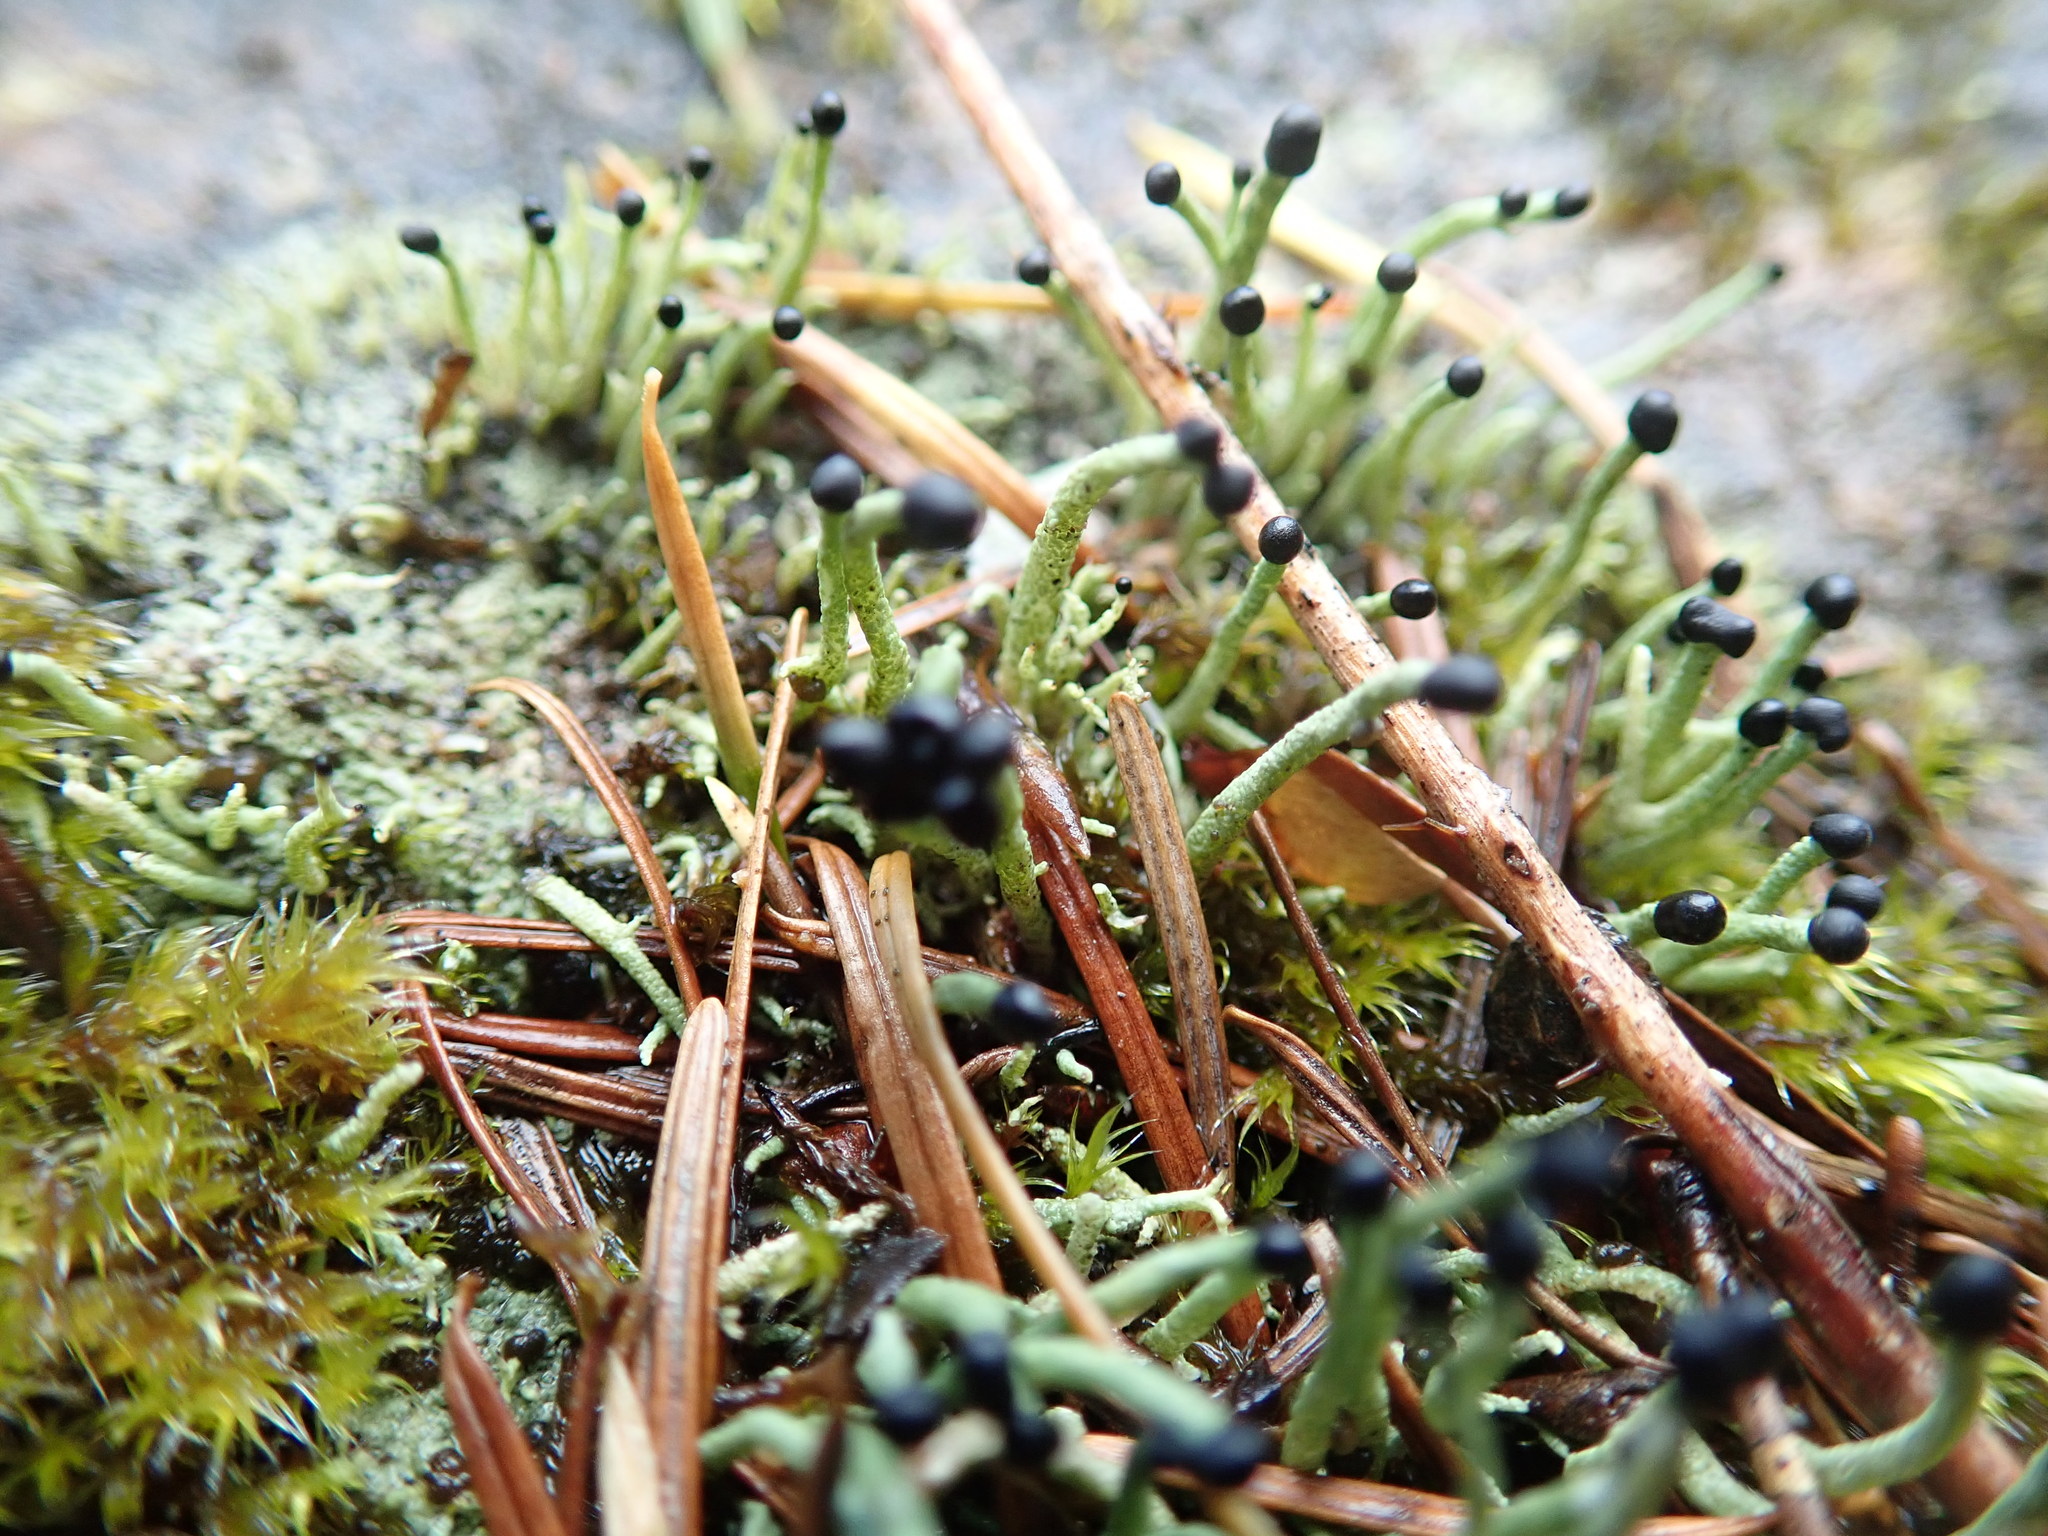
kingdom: Fungi
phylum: Ascomycota
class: Lecanoromycetes
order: Lecanorales
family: Cladoniaceae
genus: Pilophorus
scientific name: Pilophorus acicularis
